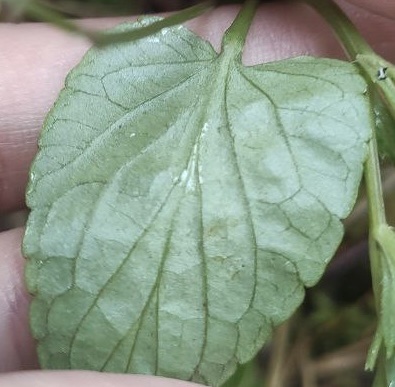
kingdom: Plantae
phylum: Tracheophyta
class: Magnoliopsida
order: Malpighiales
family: Violaceae
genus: Viola
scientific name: Viola
